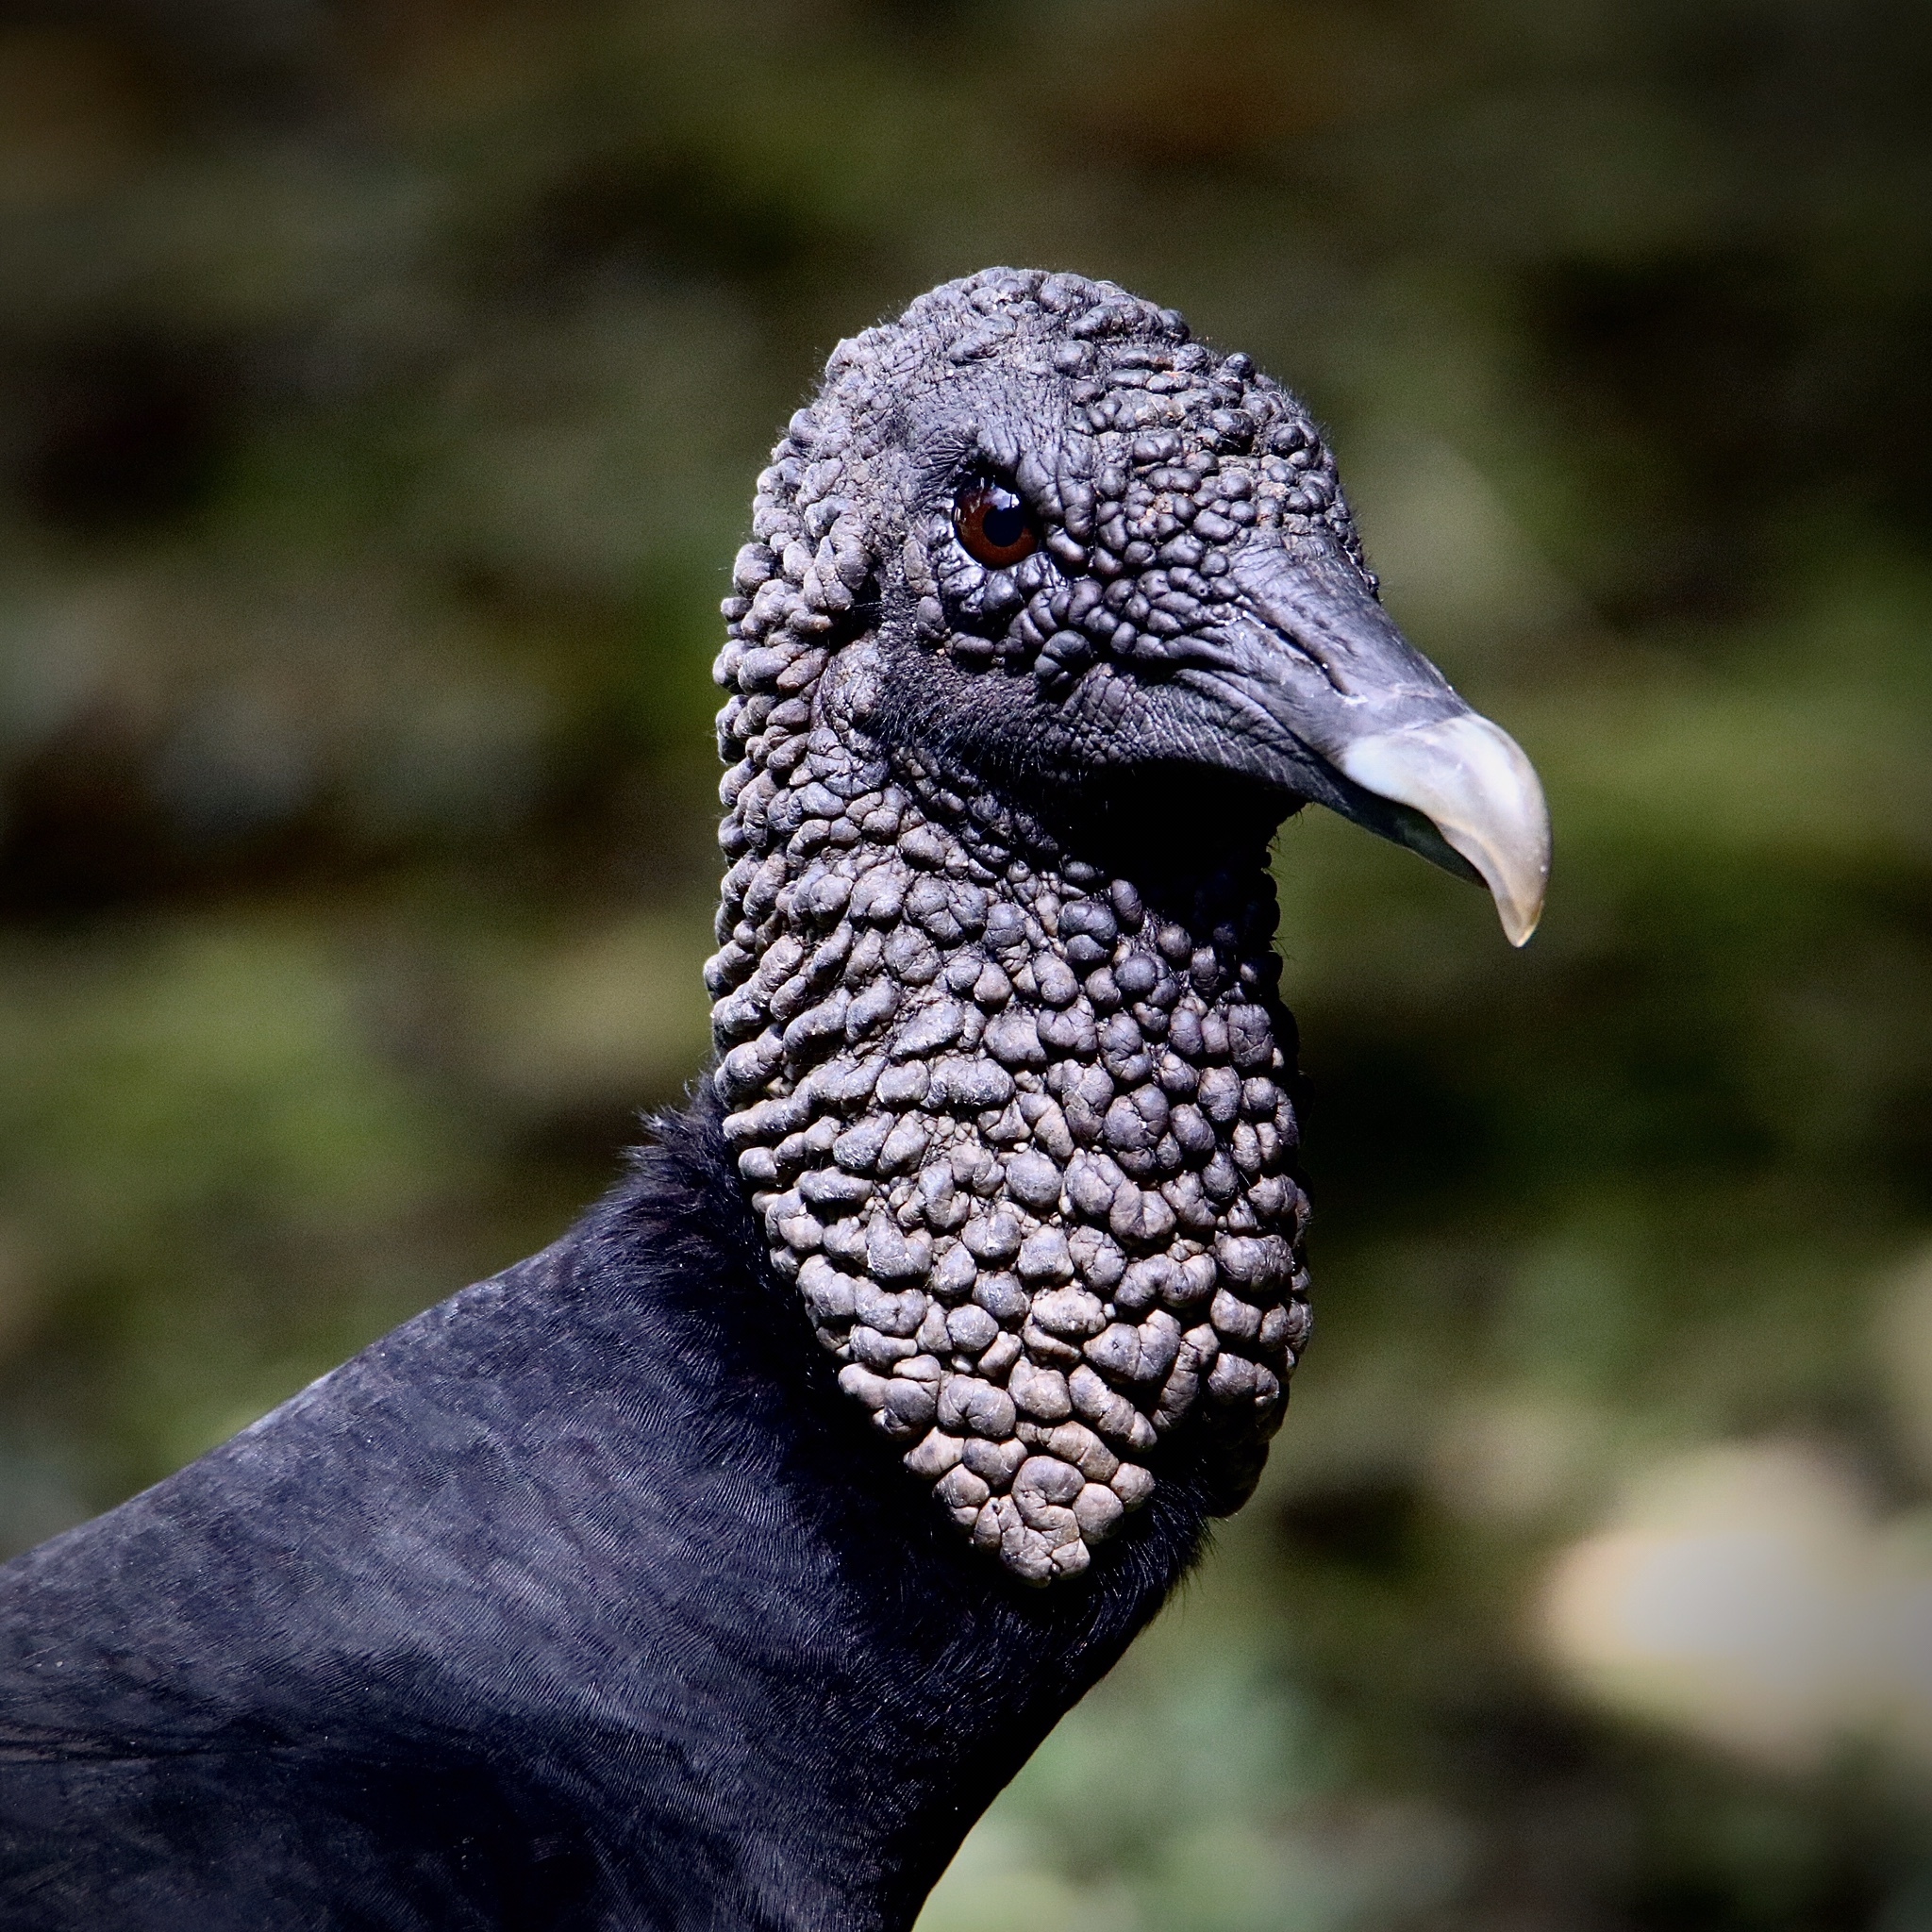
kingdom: Animalia
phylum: Chordata
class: Aves
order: Accipitriformes
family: Cathartidae
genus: Coragyps
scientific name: Coragyps atratus
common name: Black vulture
